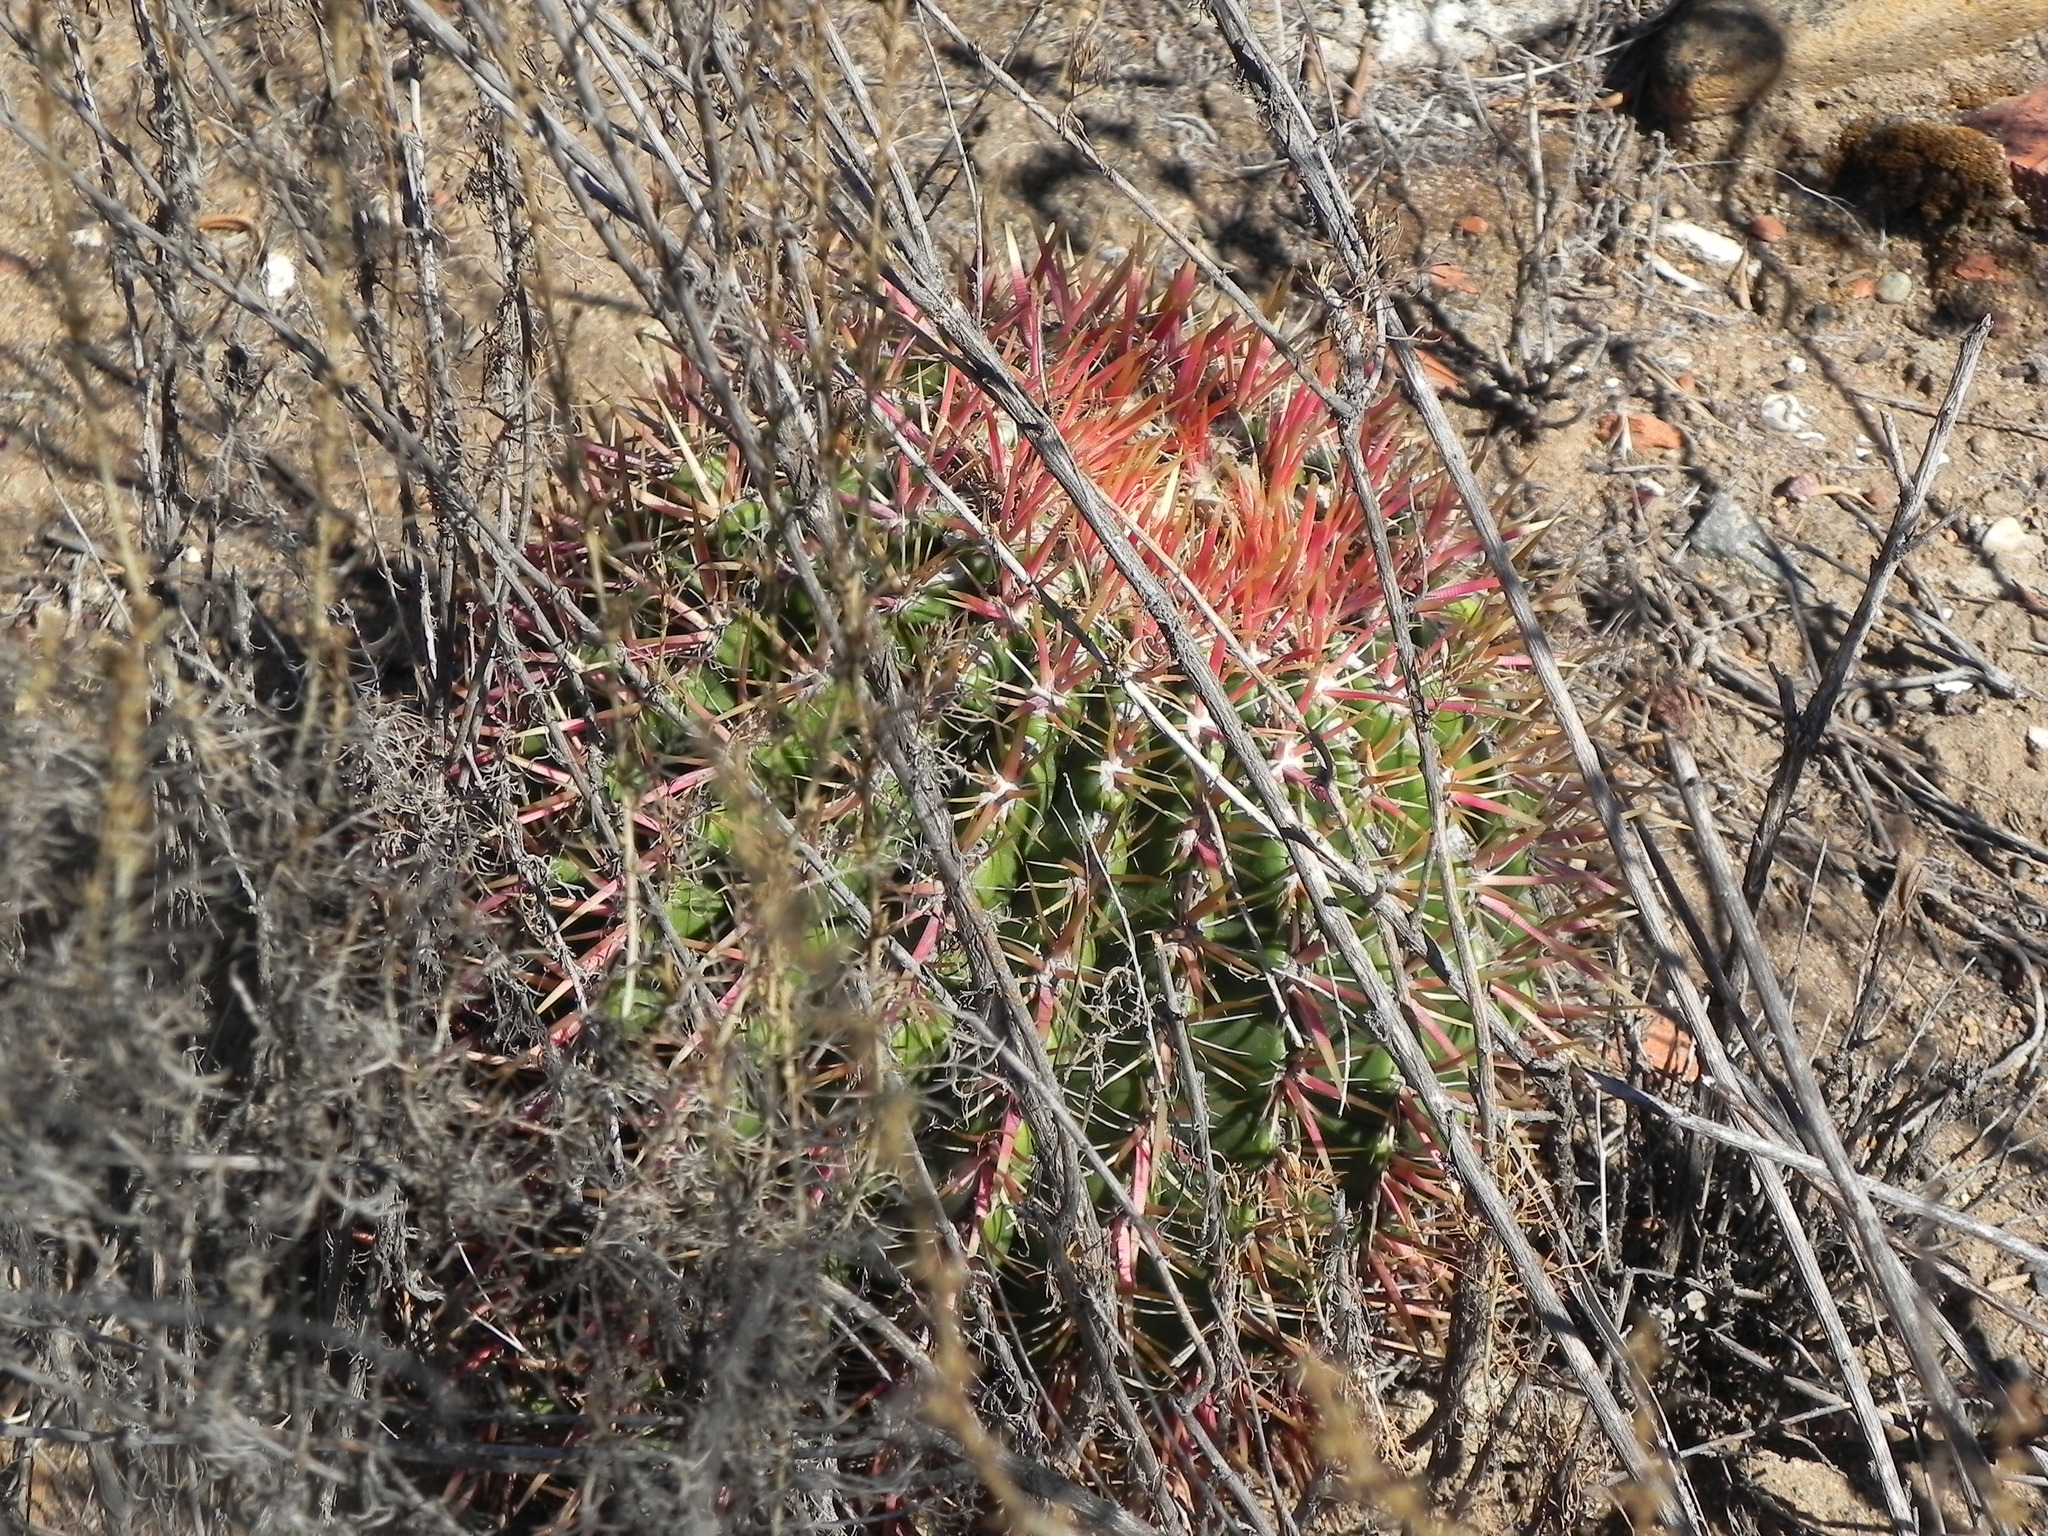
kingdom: Plantae
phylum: Tracheophyta
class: Magnoliopsida
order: Caryophyllales
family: Cactaceae
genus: Ferocactus
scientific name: Ferocactus viridescens
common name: San diego barrel cactus
